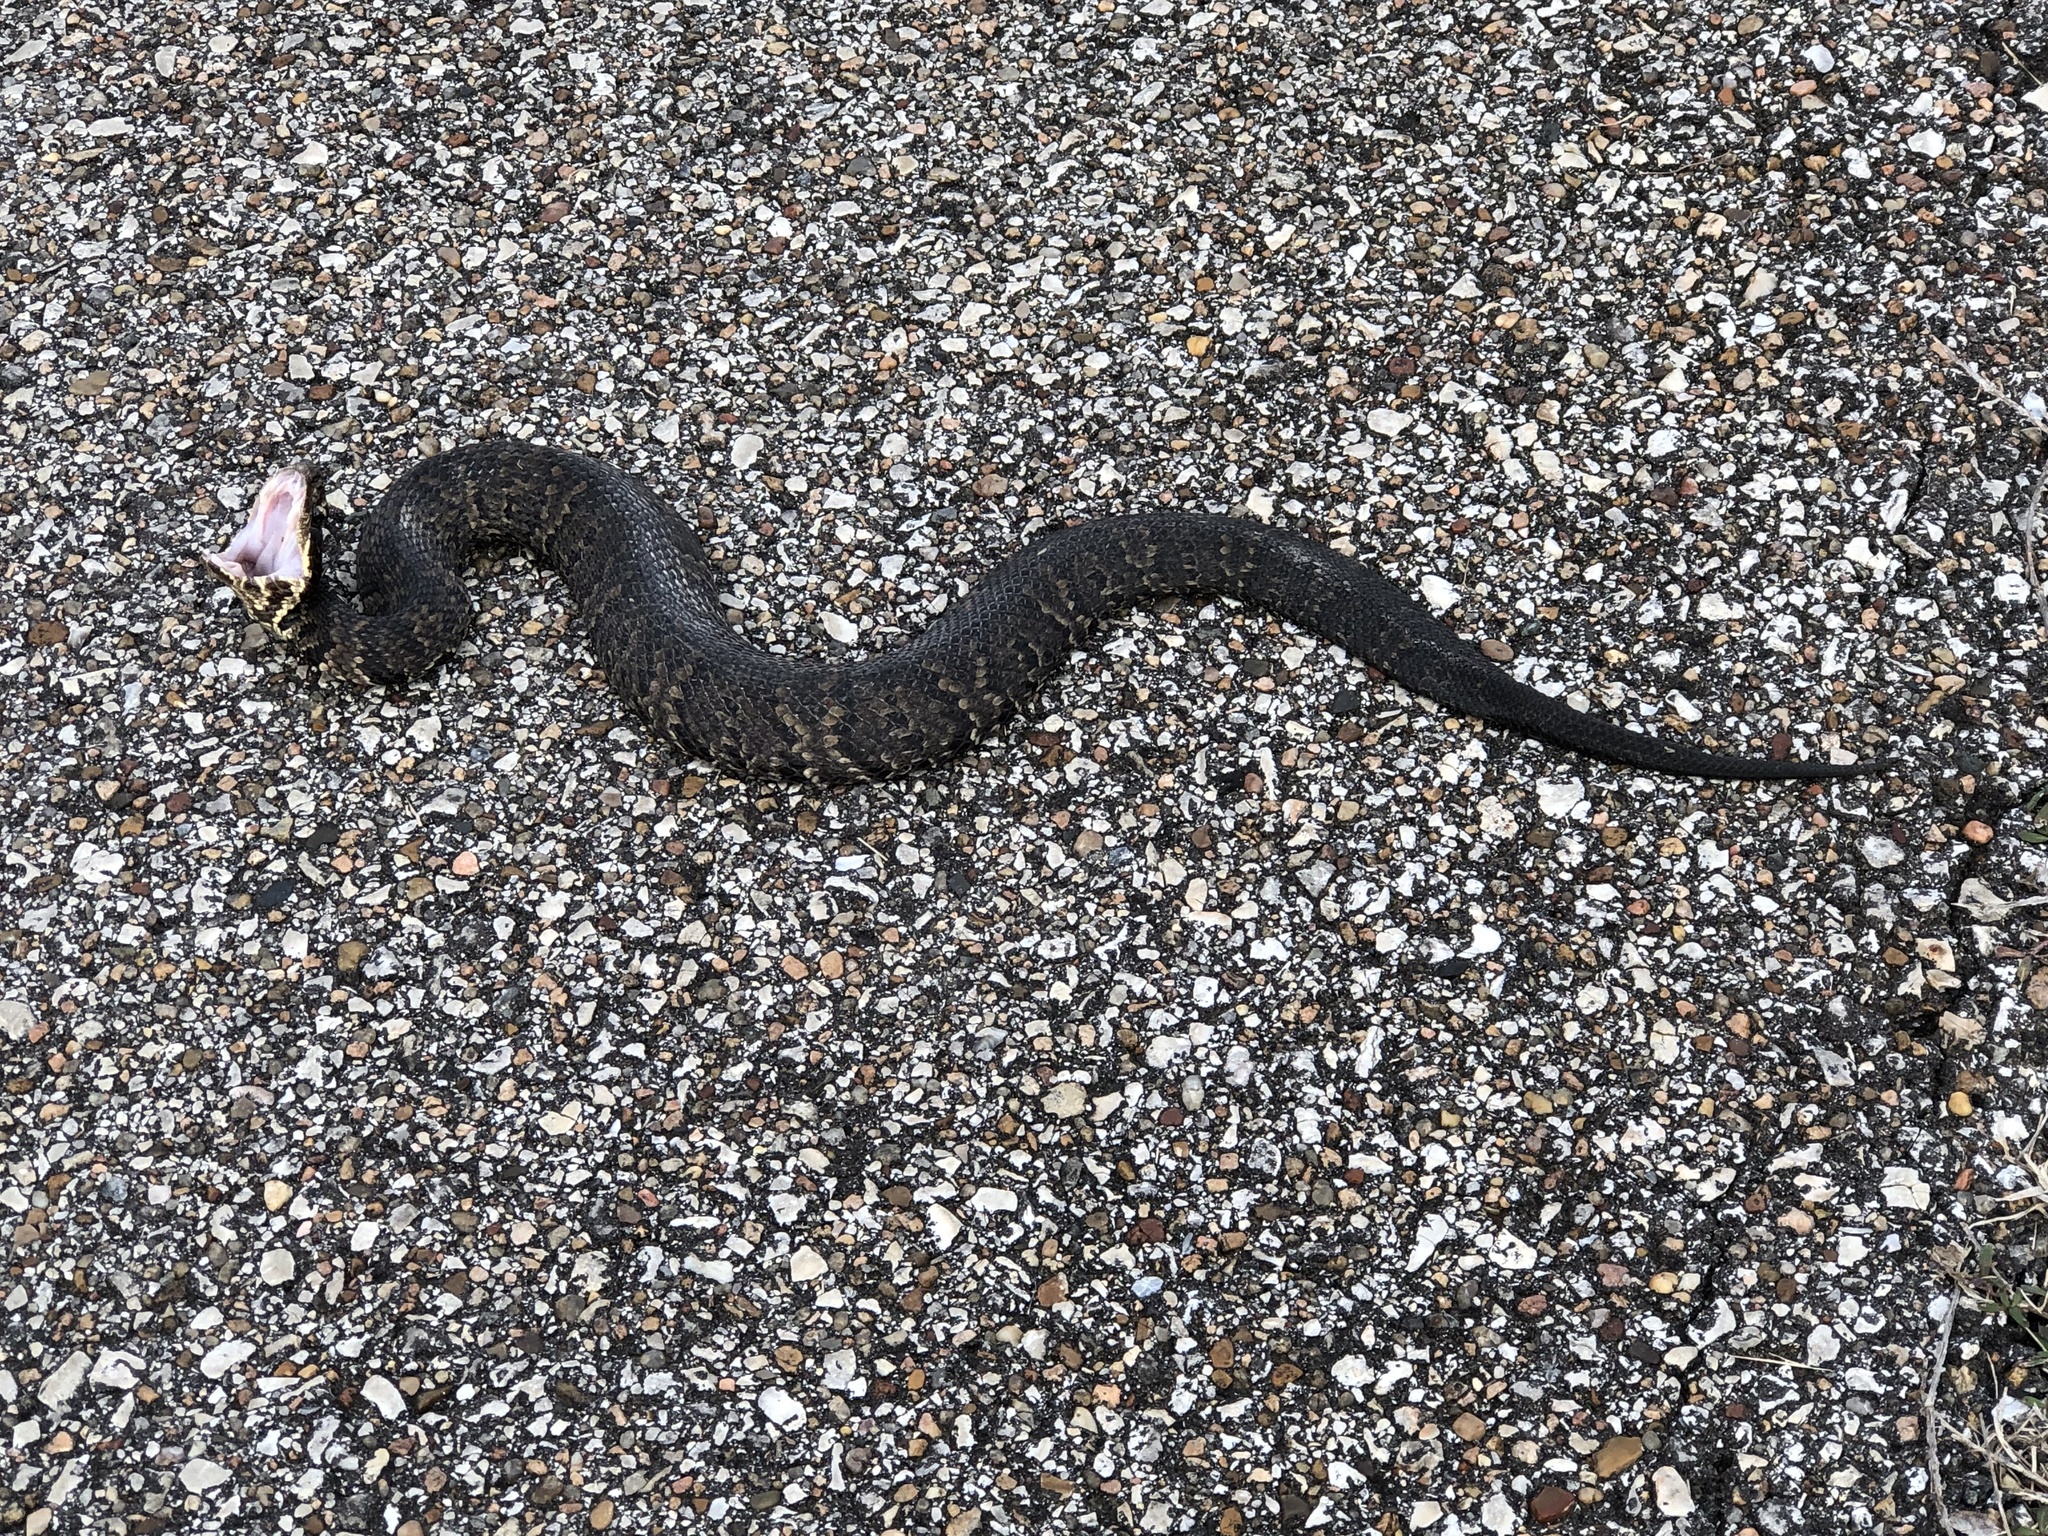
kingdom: Animalia
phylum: Chordata
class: Squamata
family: Viperidae
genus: Agkistrodon
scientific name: Agkistrodon piscivorus
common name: Cottonmouth
